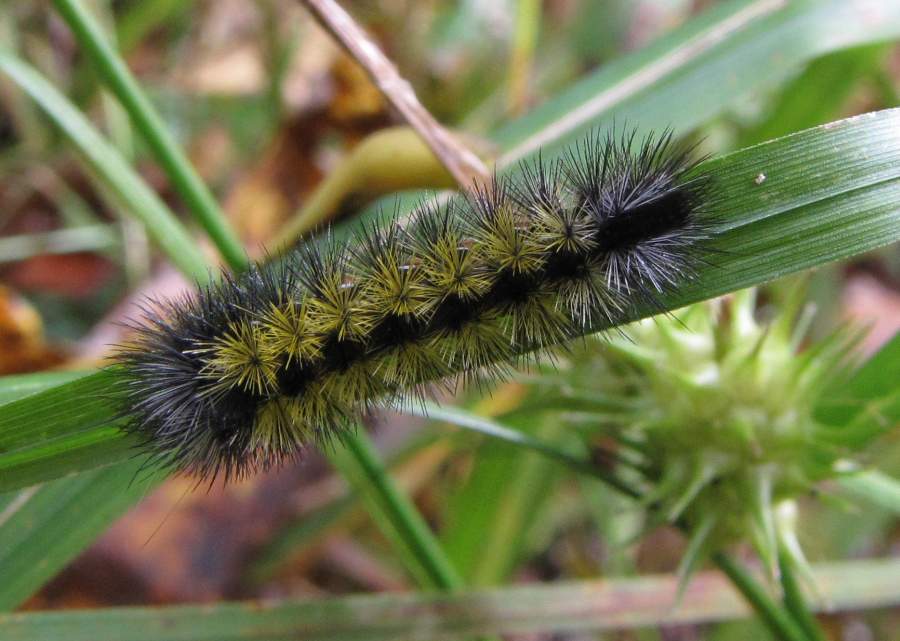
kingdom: Animalia
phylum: Arthropoda
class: Insecta
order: Lepidoptera
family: Erebidae
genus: Ctenucha
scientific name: Ctenucha virginica
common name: Virginia ctenucha moth
